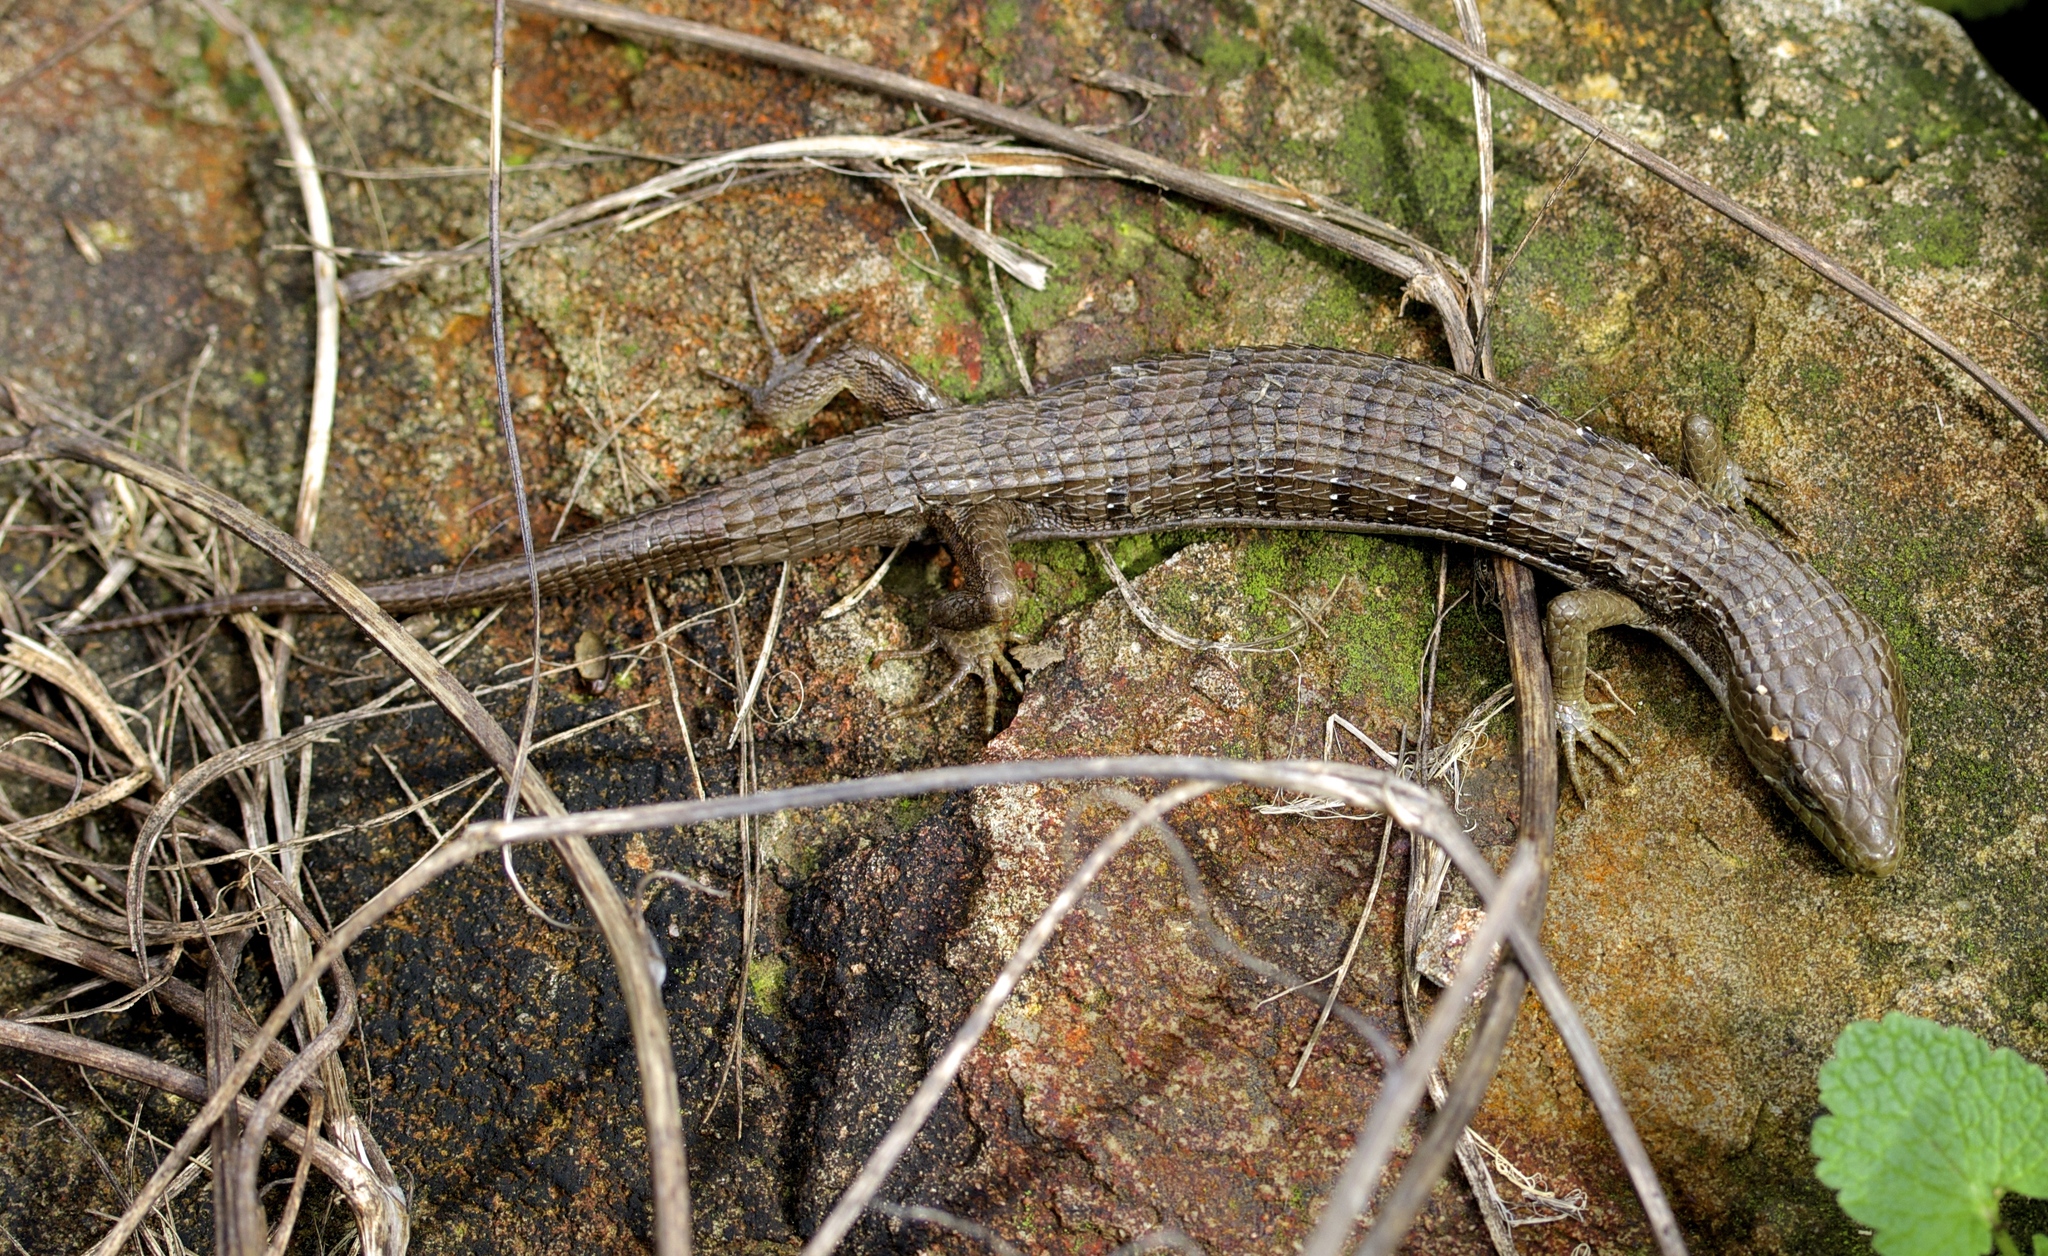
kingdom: Animalia
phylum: Chordata
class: Squamata
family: Anguidae
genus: Elgaria
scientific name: Elgaria multicarinata
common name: Southern alligator lizard
